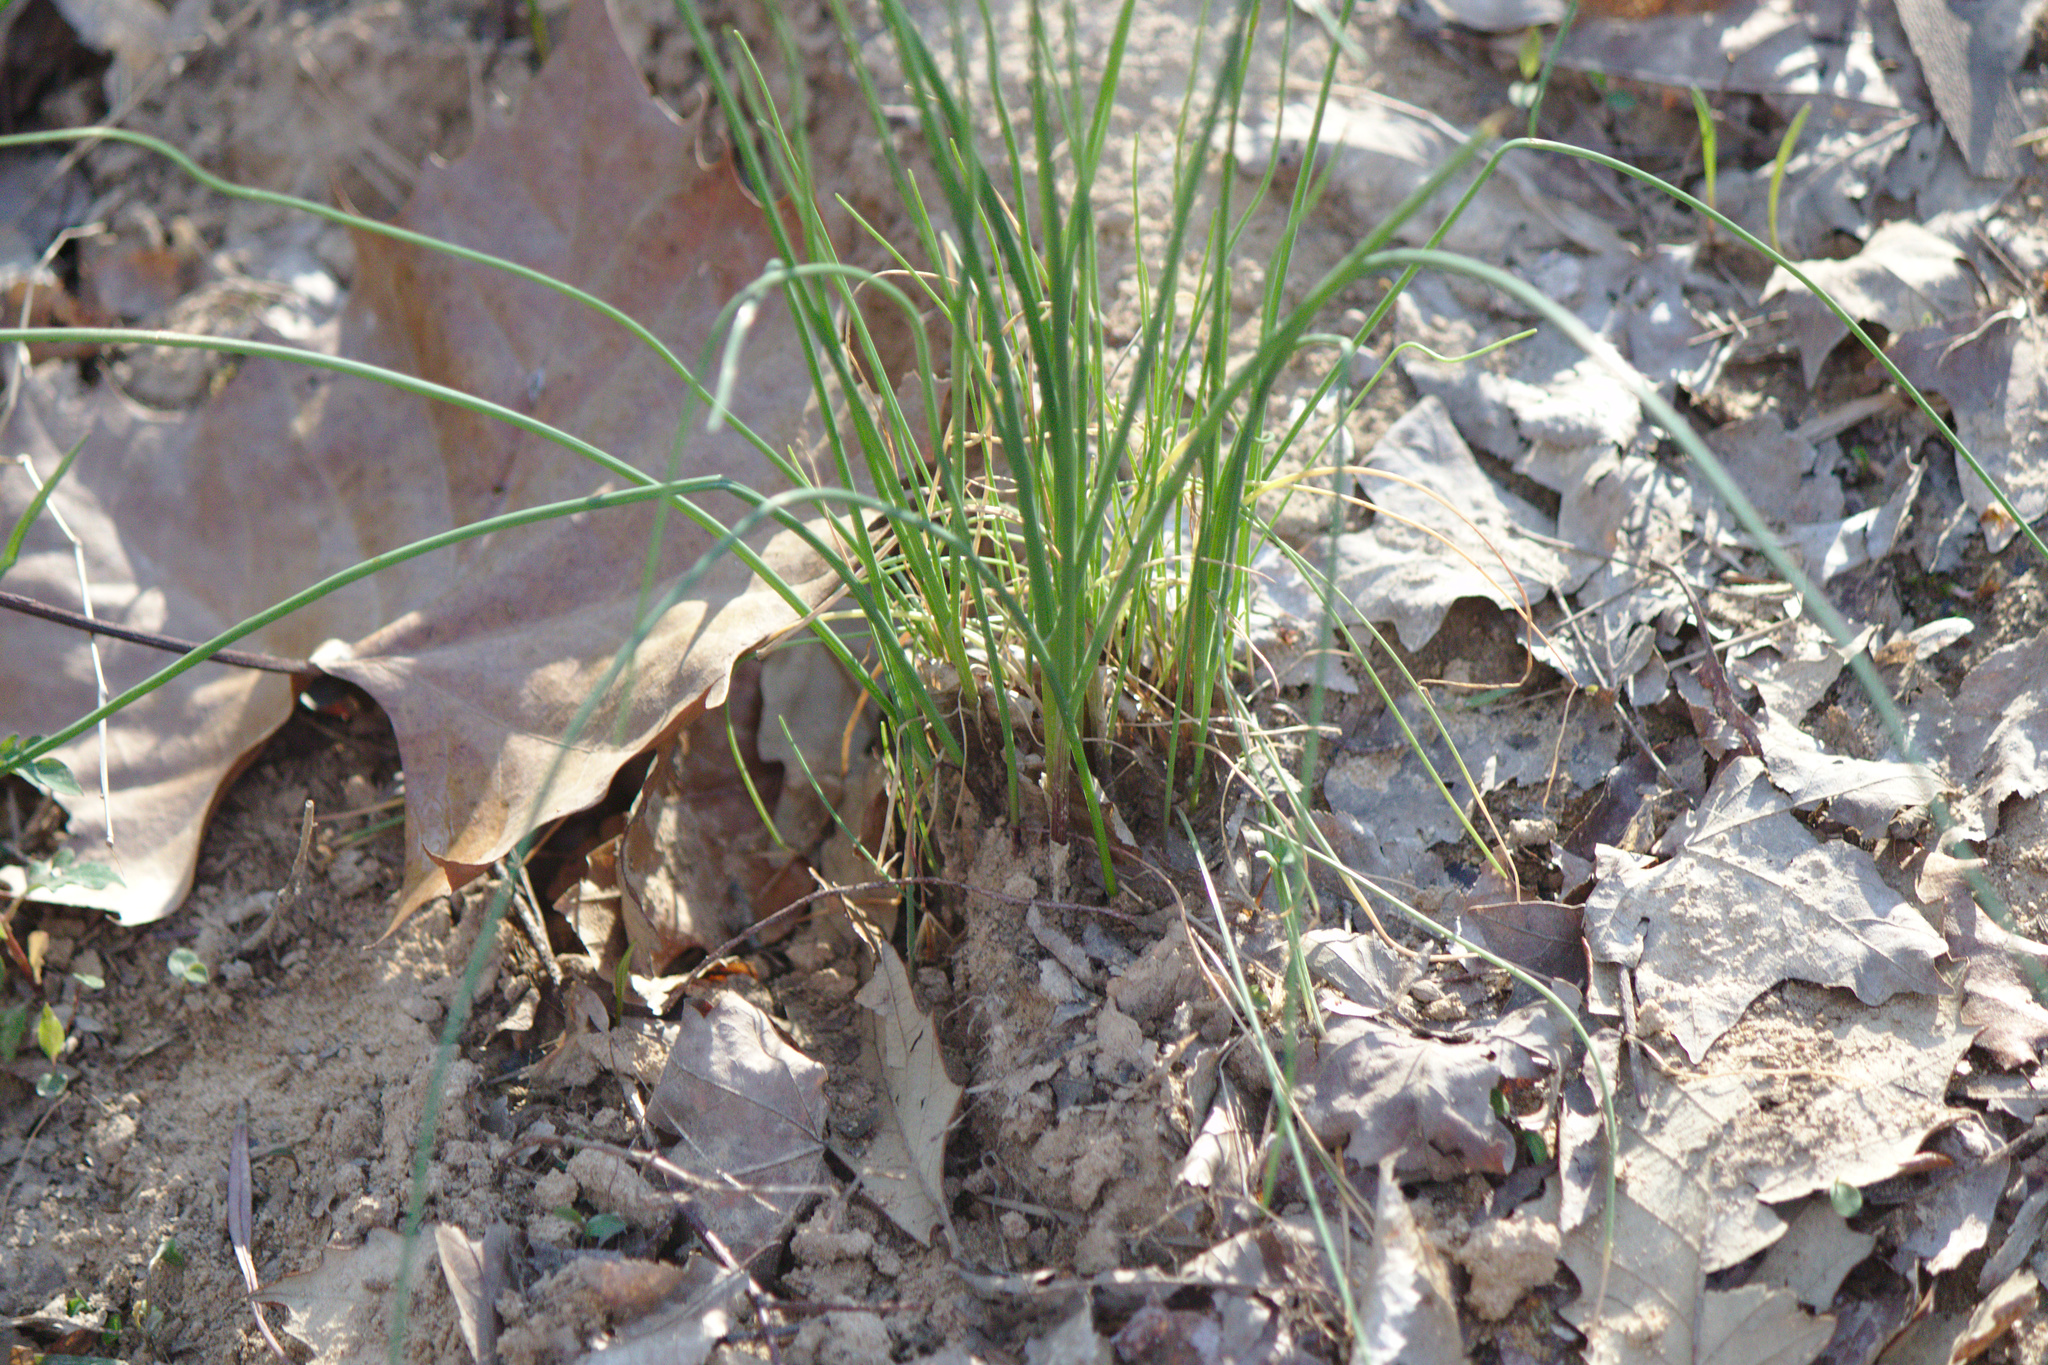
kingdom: Plantae
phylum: Tracheophyta
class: Liliopsida
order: Asparagales
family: Amaryllidaceae
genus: Allium
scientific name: Allium vineale
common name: Crow garlic
